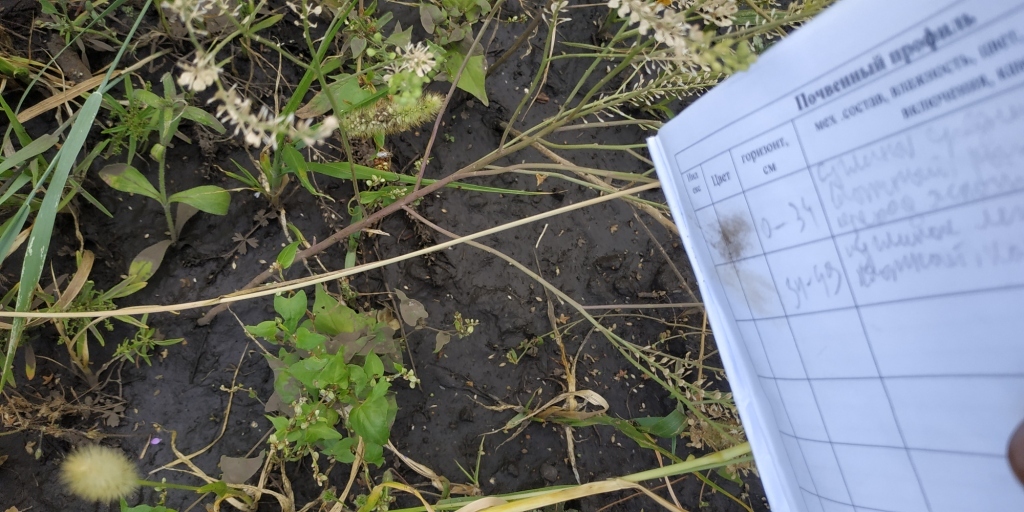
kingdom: Plantae
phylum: Tracheophyta
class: Magnoliopsida
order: Brassicales
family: Brassicaceae
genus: Lepidium
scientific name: Lepidium densiflorum
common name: Miner's pepperwort
